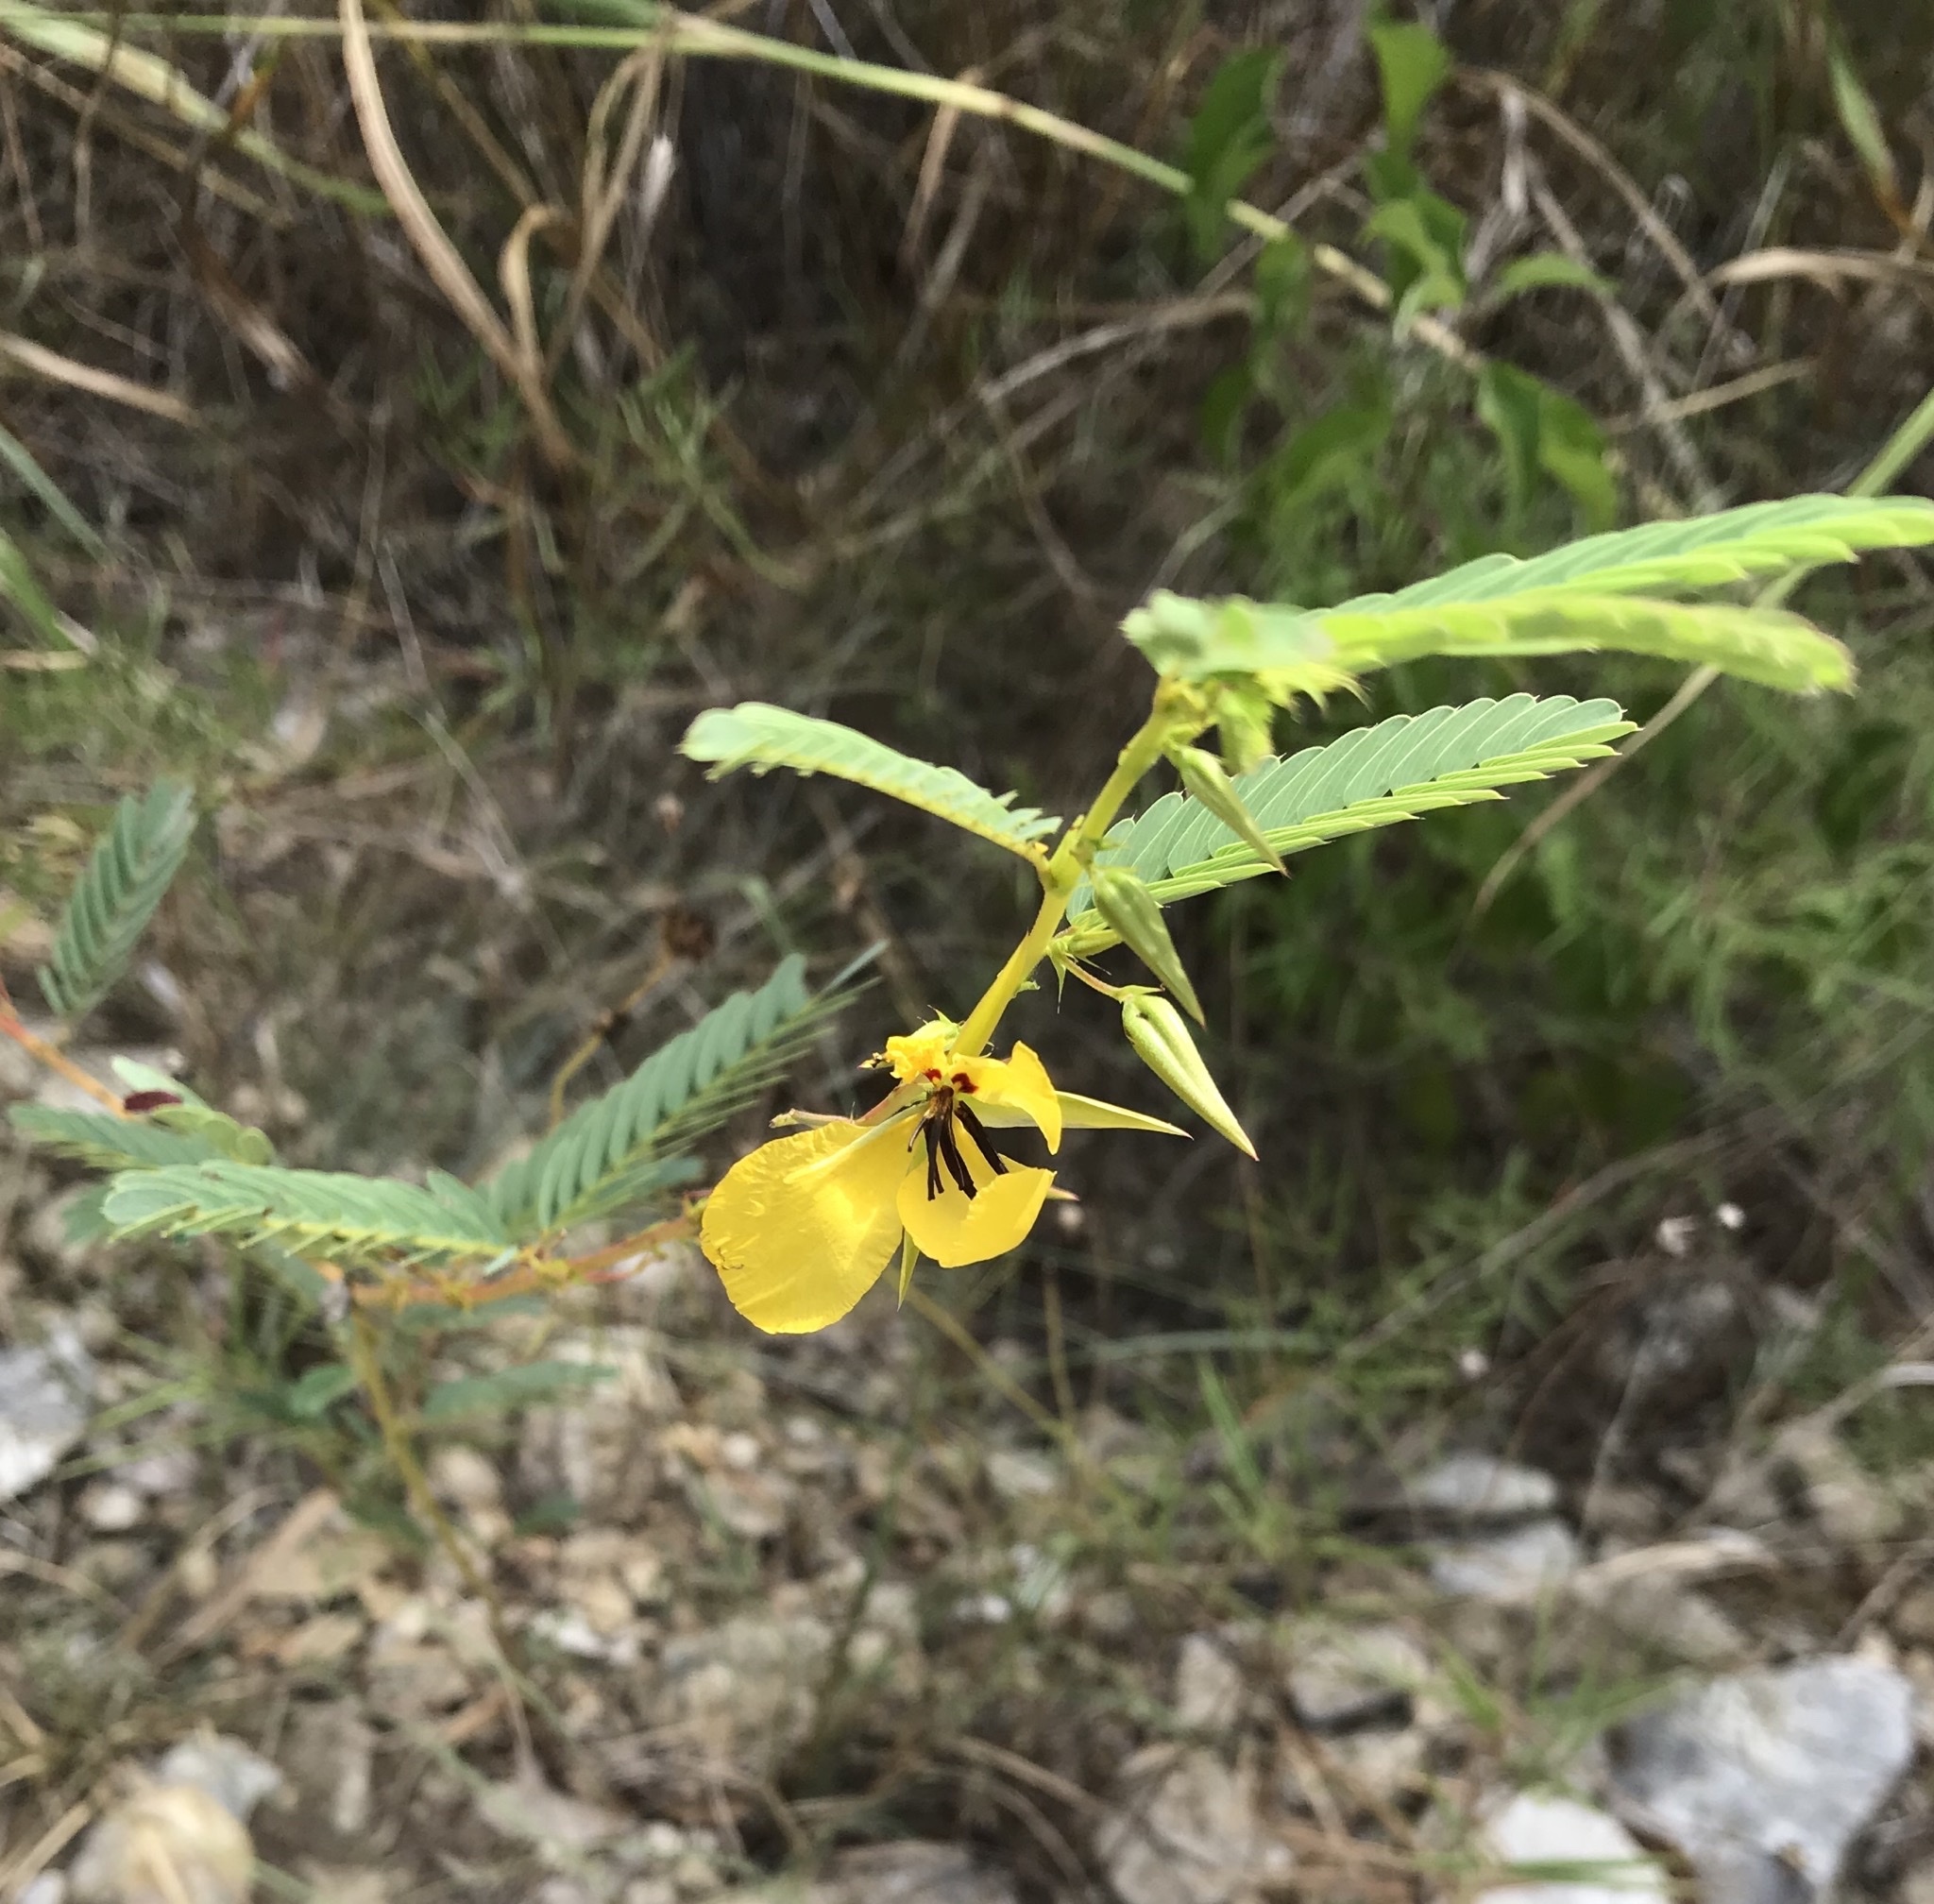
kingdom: Plantae
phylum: Tracheophyta
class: Magnoliopsida
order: Fabales
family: Fabaceae
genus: Chamaecrista
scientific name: Chamaecrista fasciculata
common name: Golden cassia
